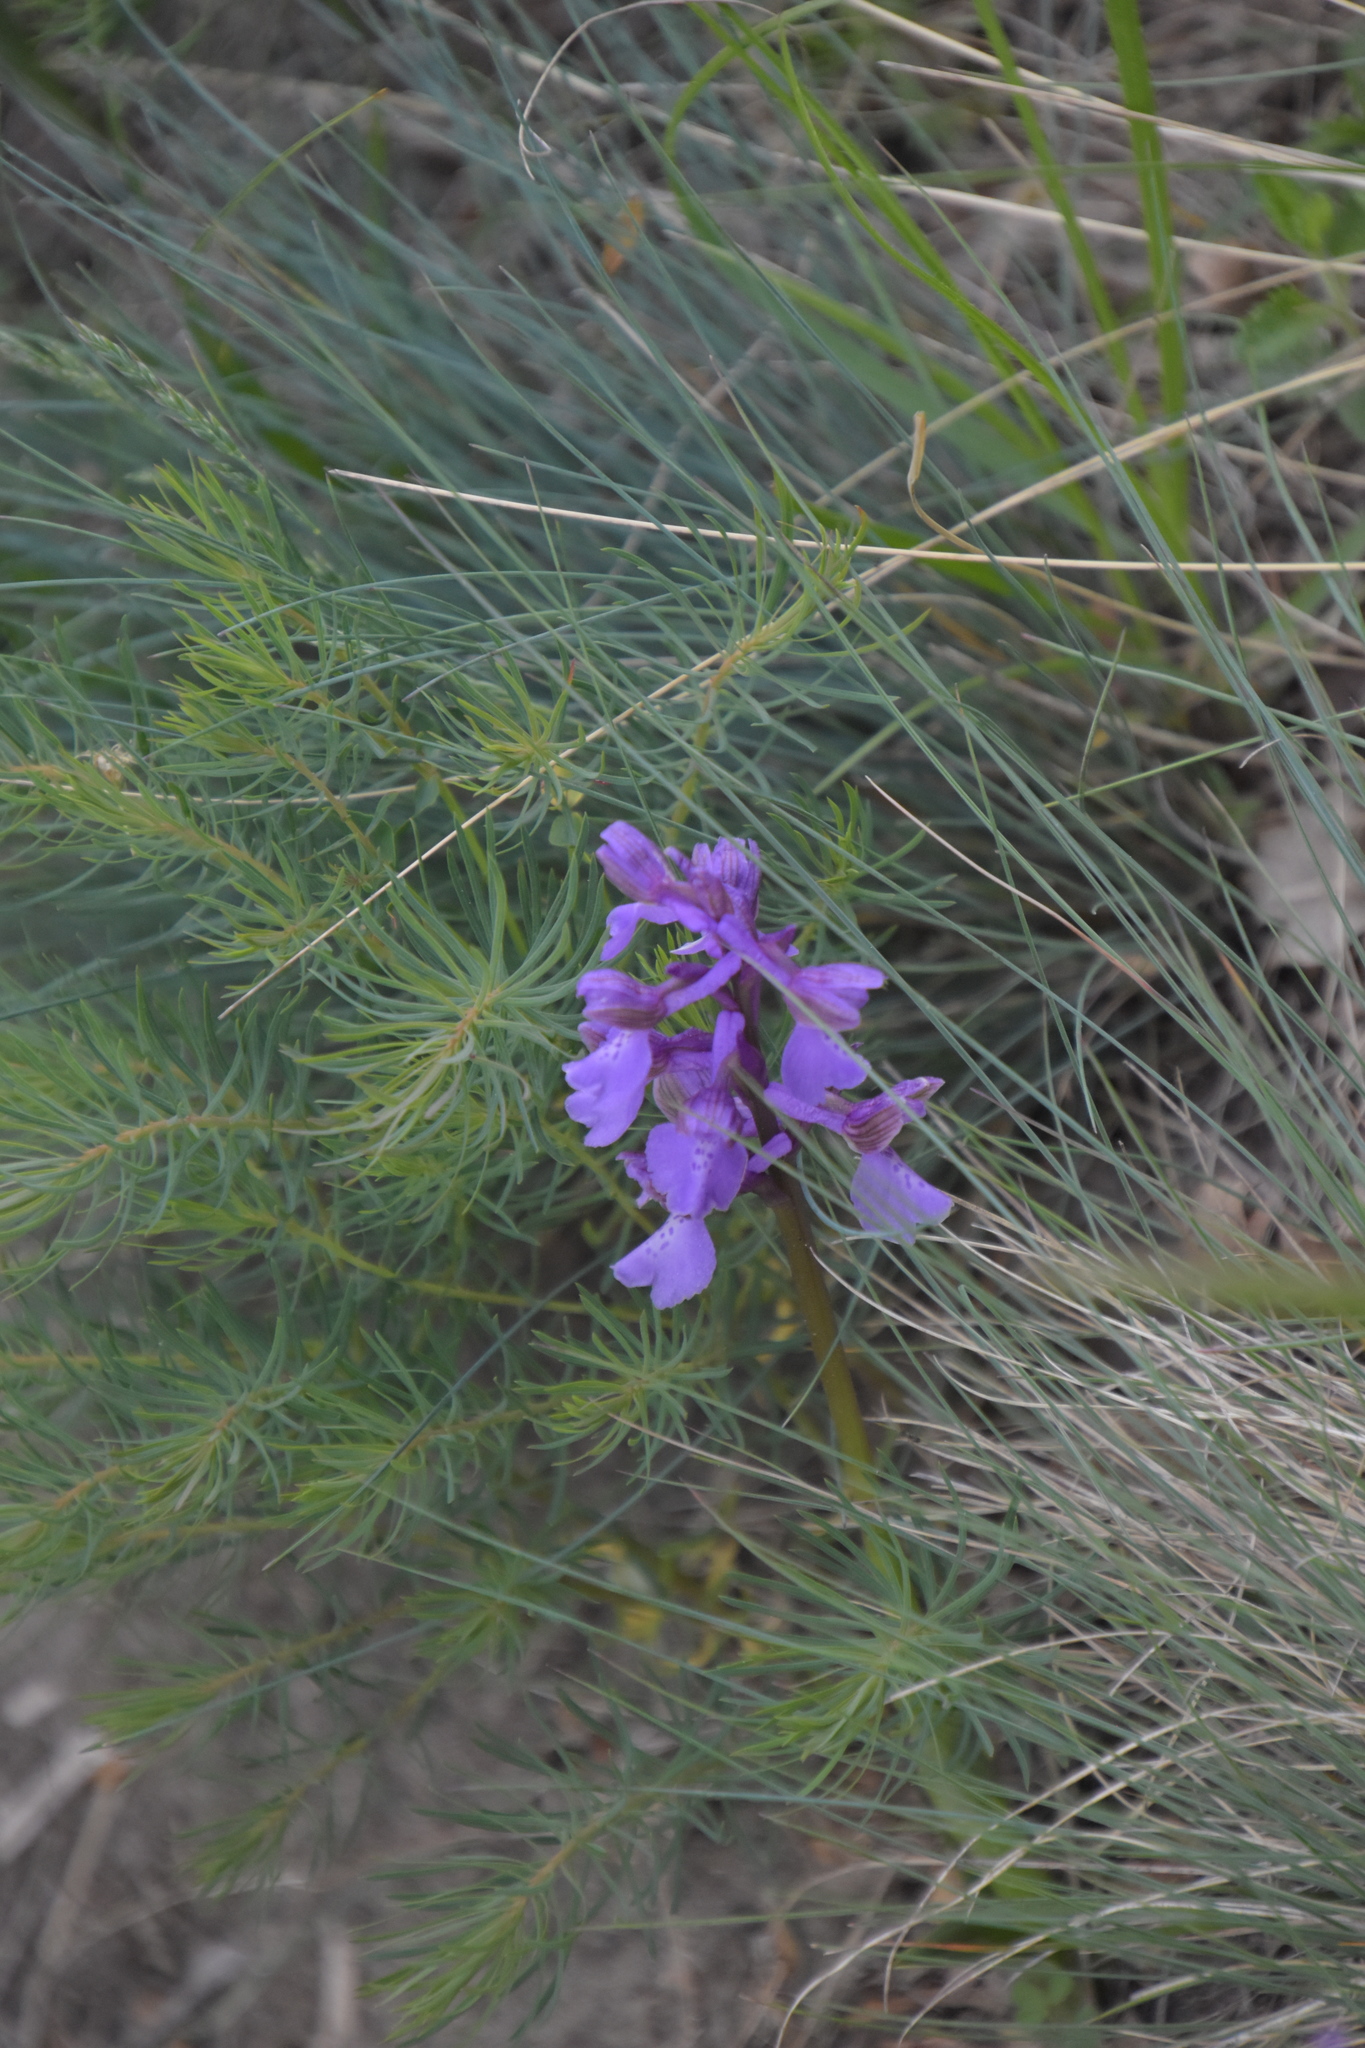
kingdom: Plantae
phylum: Tracheophyta
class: Liliopsida
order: Asparagales
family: Orchidaceae
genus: Anacamptis
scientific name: Anacamptis morio
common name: Green-winged orchid
